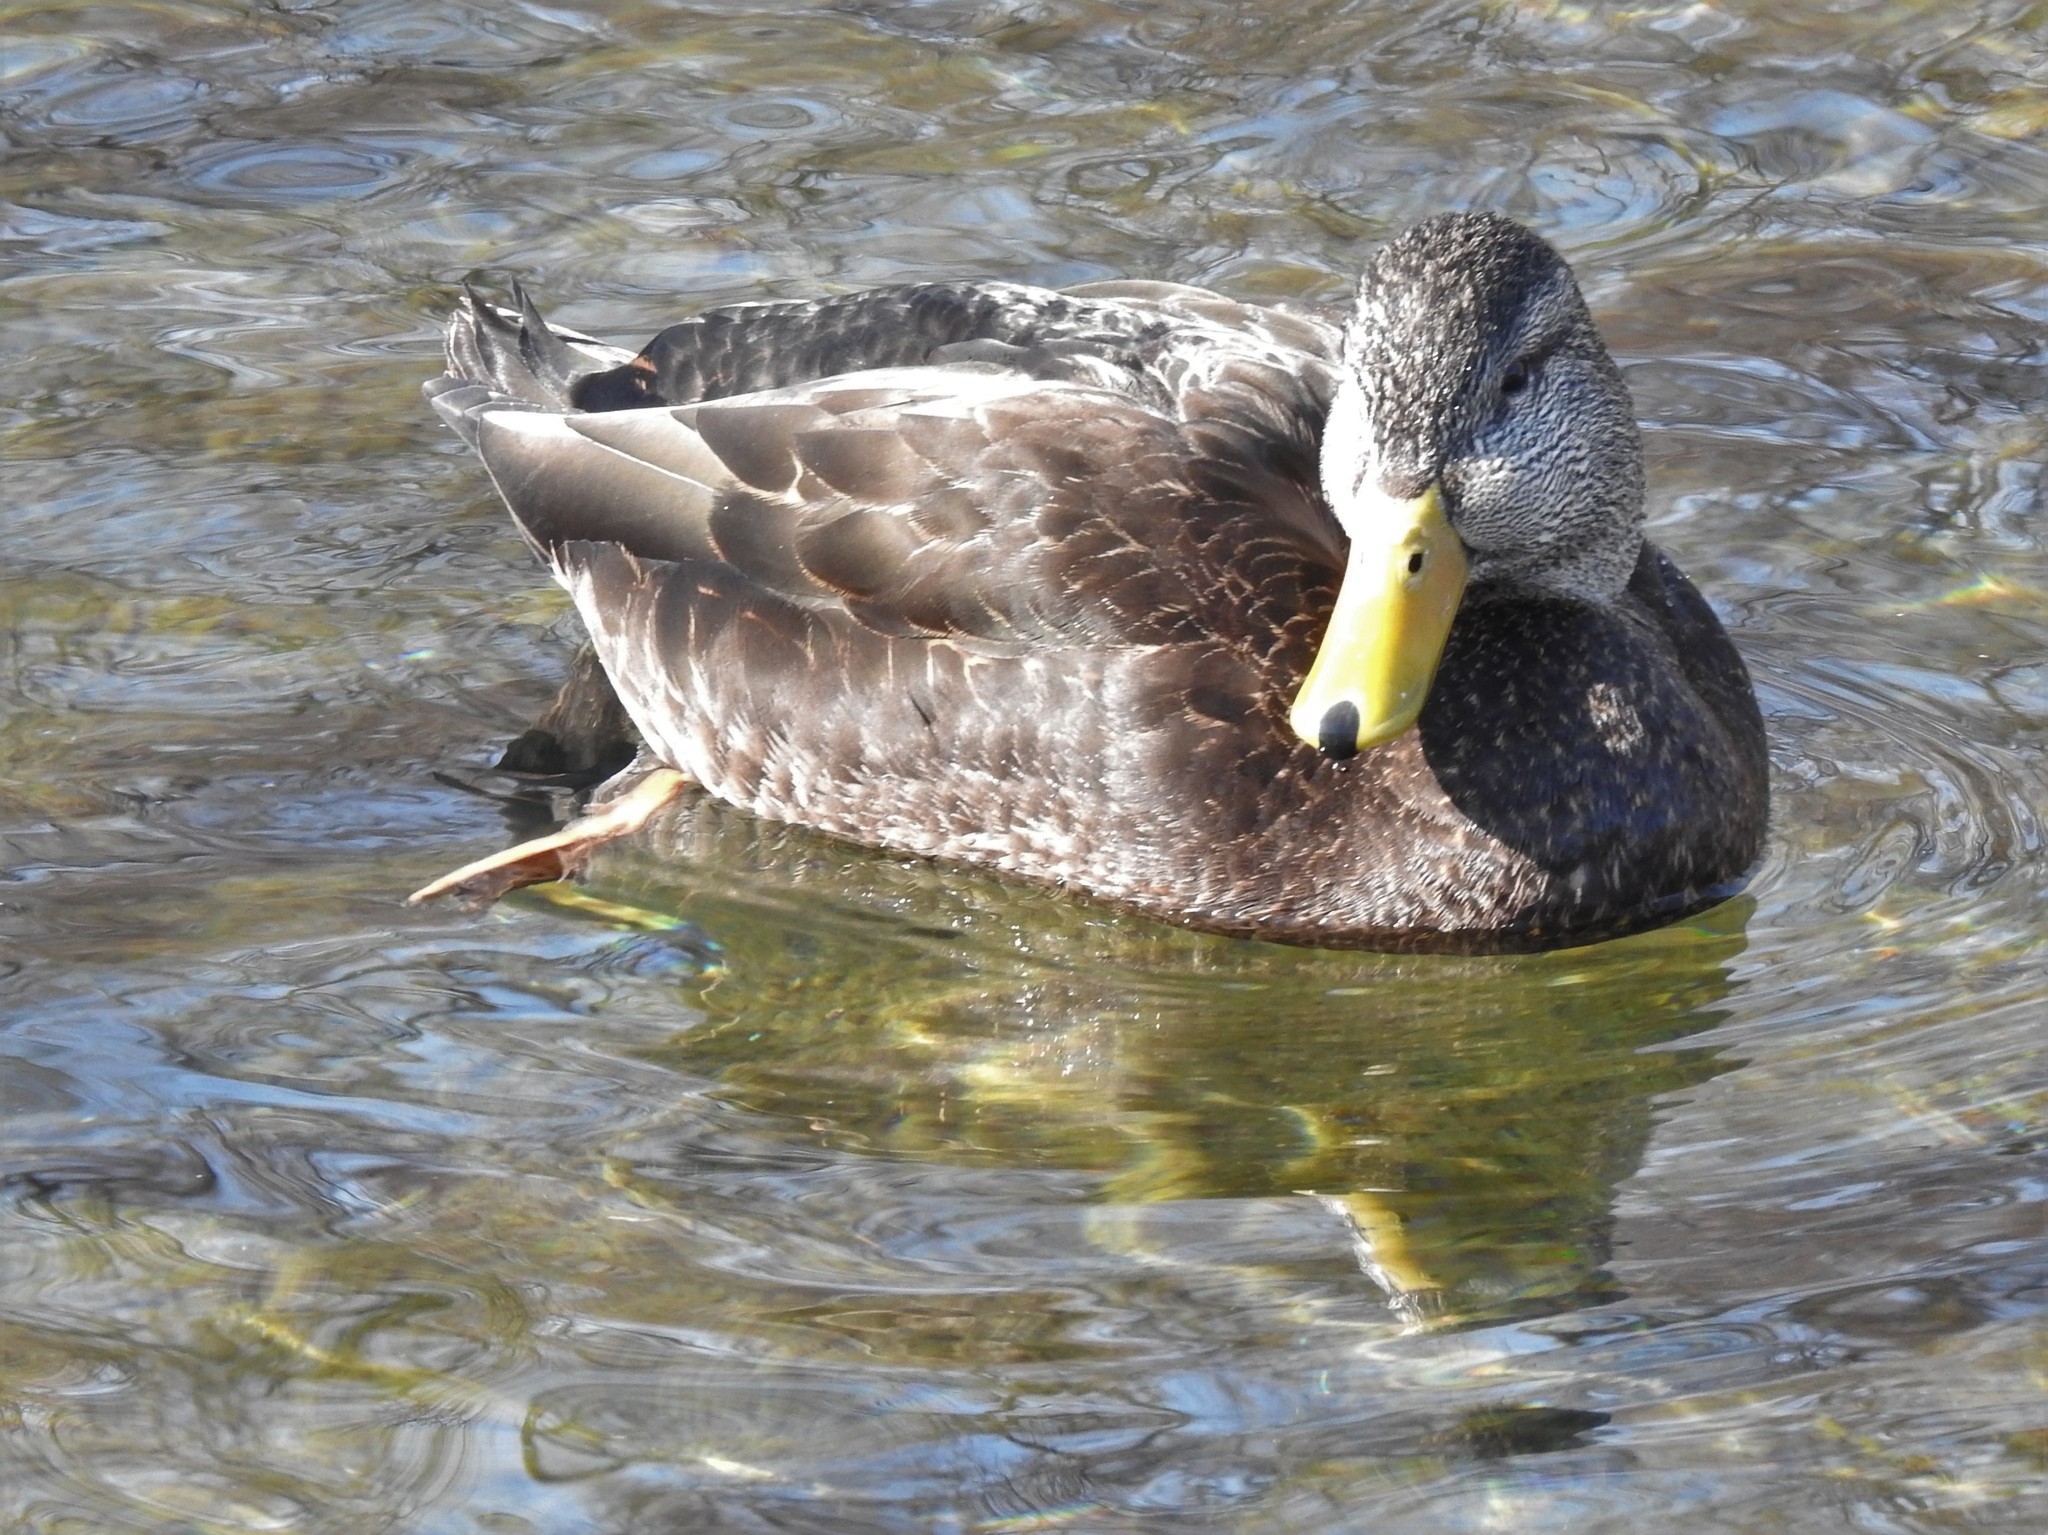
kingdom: Animalia
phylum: Chordata
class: Aves
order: Anseriformes
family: Anatidae
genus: Anas
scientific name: Anas rubripes
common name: American black duck
